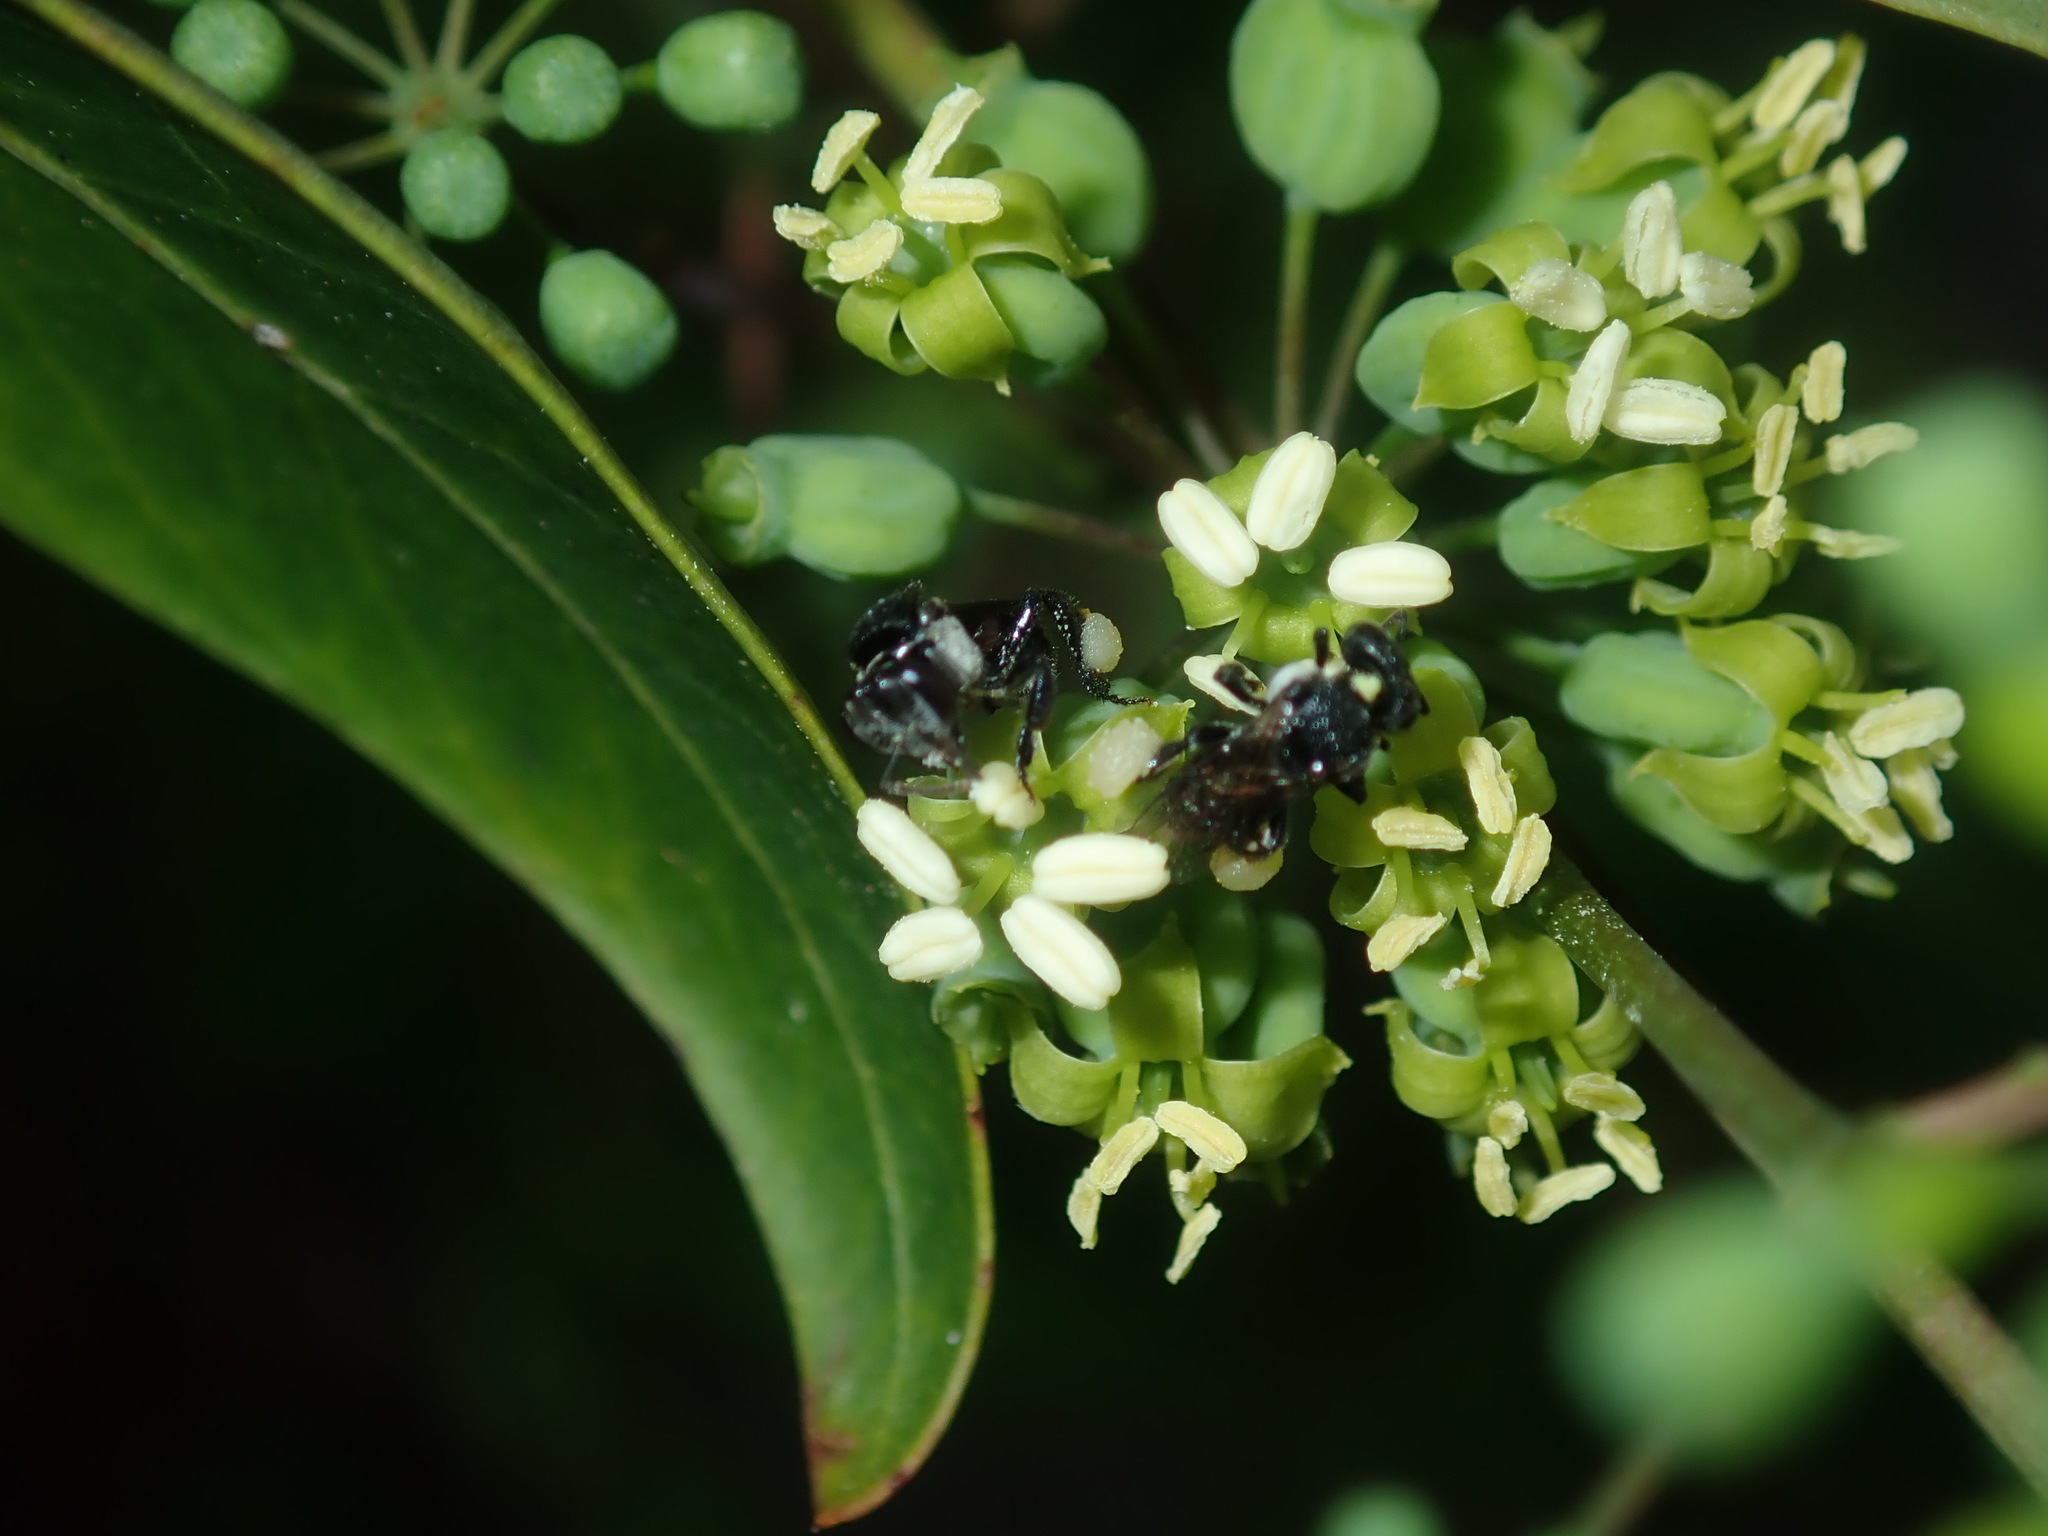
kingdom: Animalia
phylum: Arthropoda
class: Insecta
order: Hymenoptera
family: Apidae
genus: Tetragonula
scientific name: Tetragonula carbonaria
